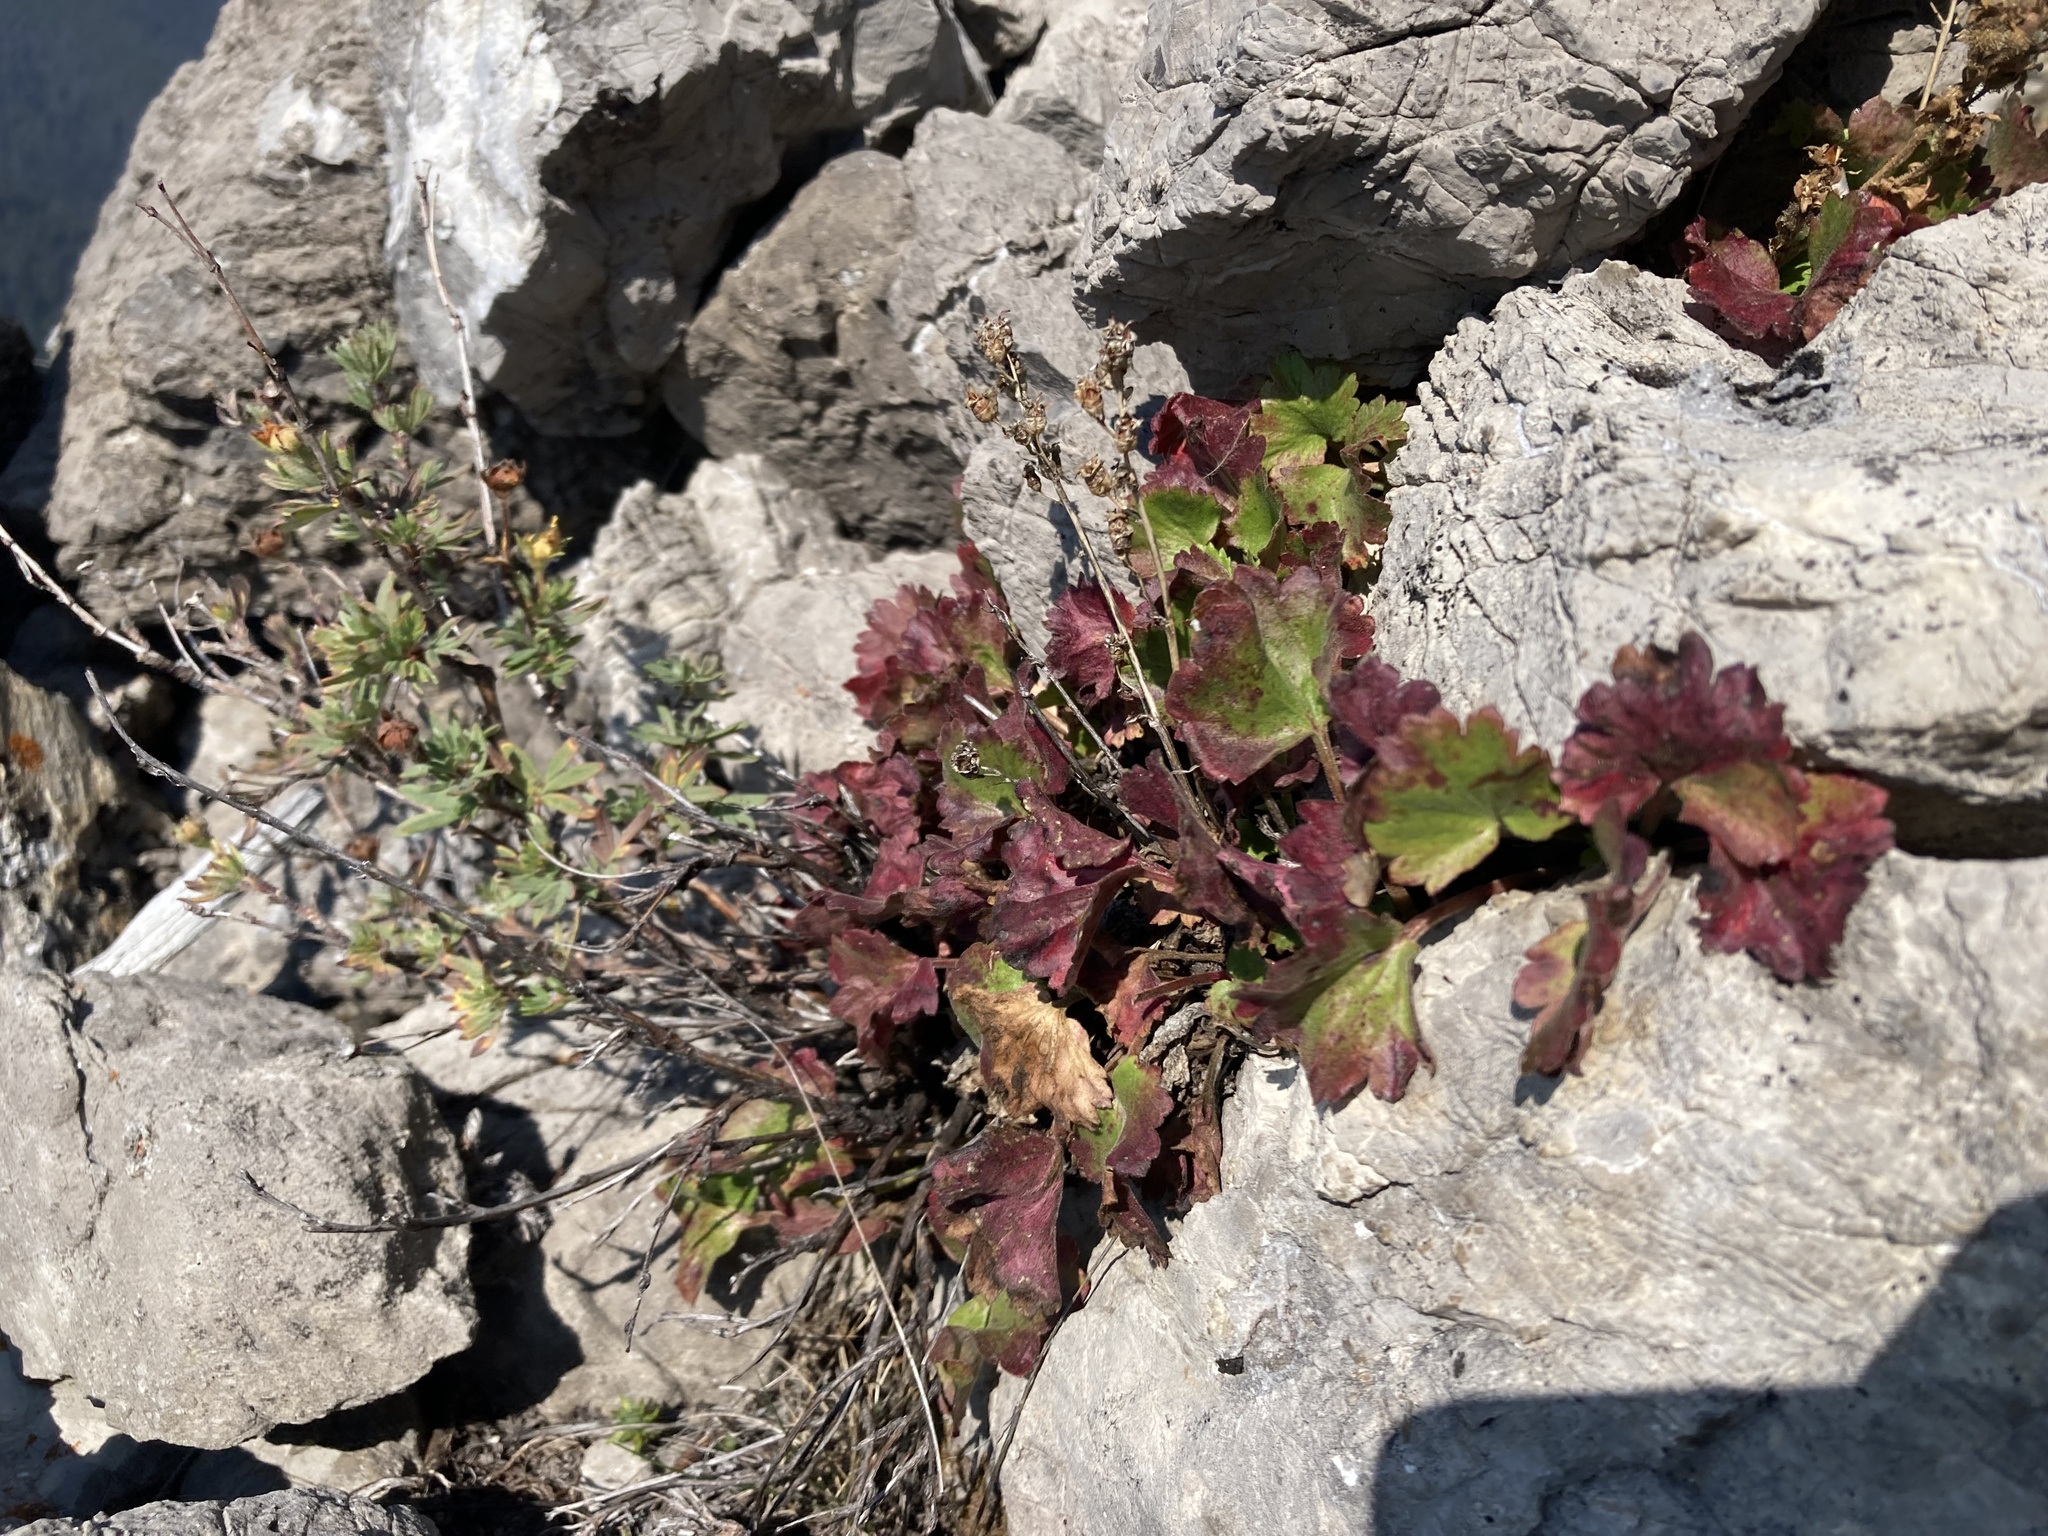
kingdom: Plantae
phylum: Tracheophyta
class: Magnoliopsida
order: Saxifragales
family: Saxifragaceae
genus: Telesonix
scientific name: Telesonix heucheriformis
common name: Alumroot brookfoam
